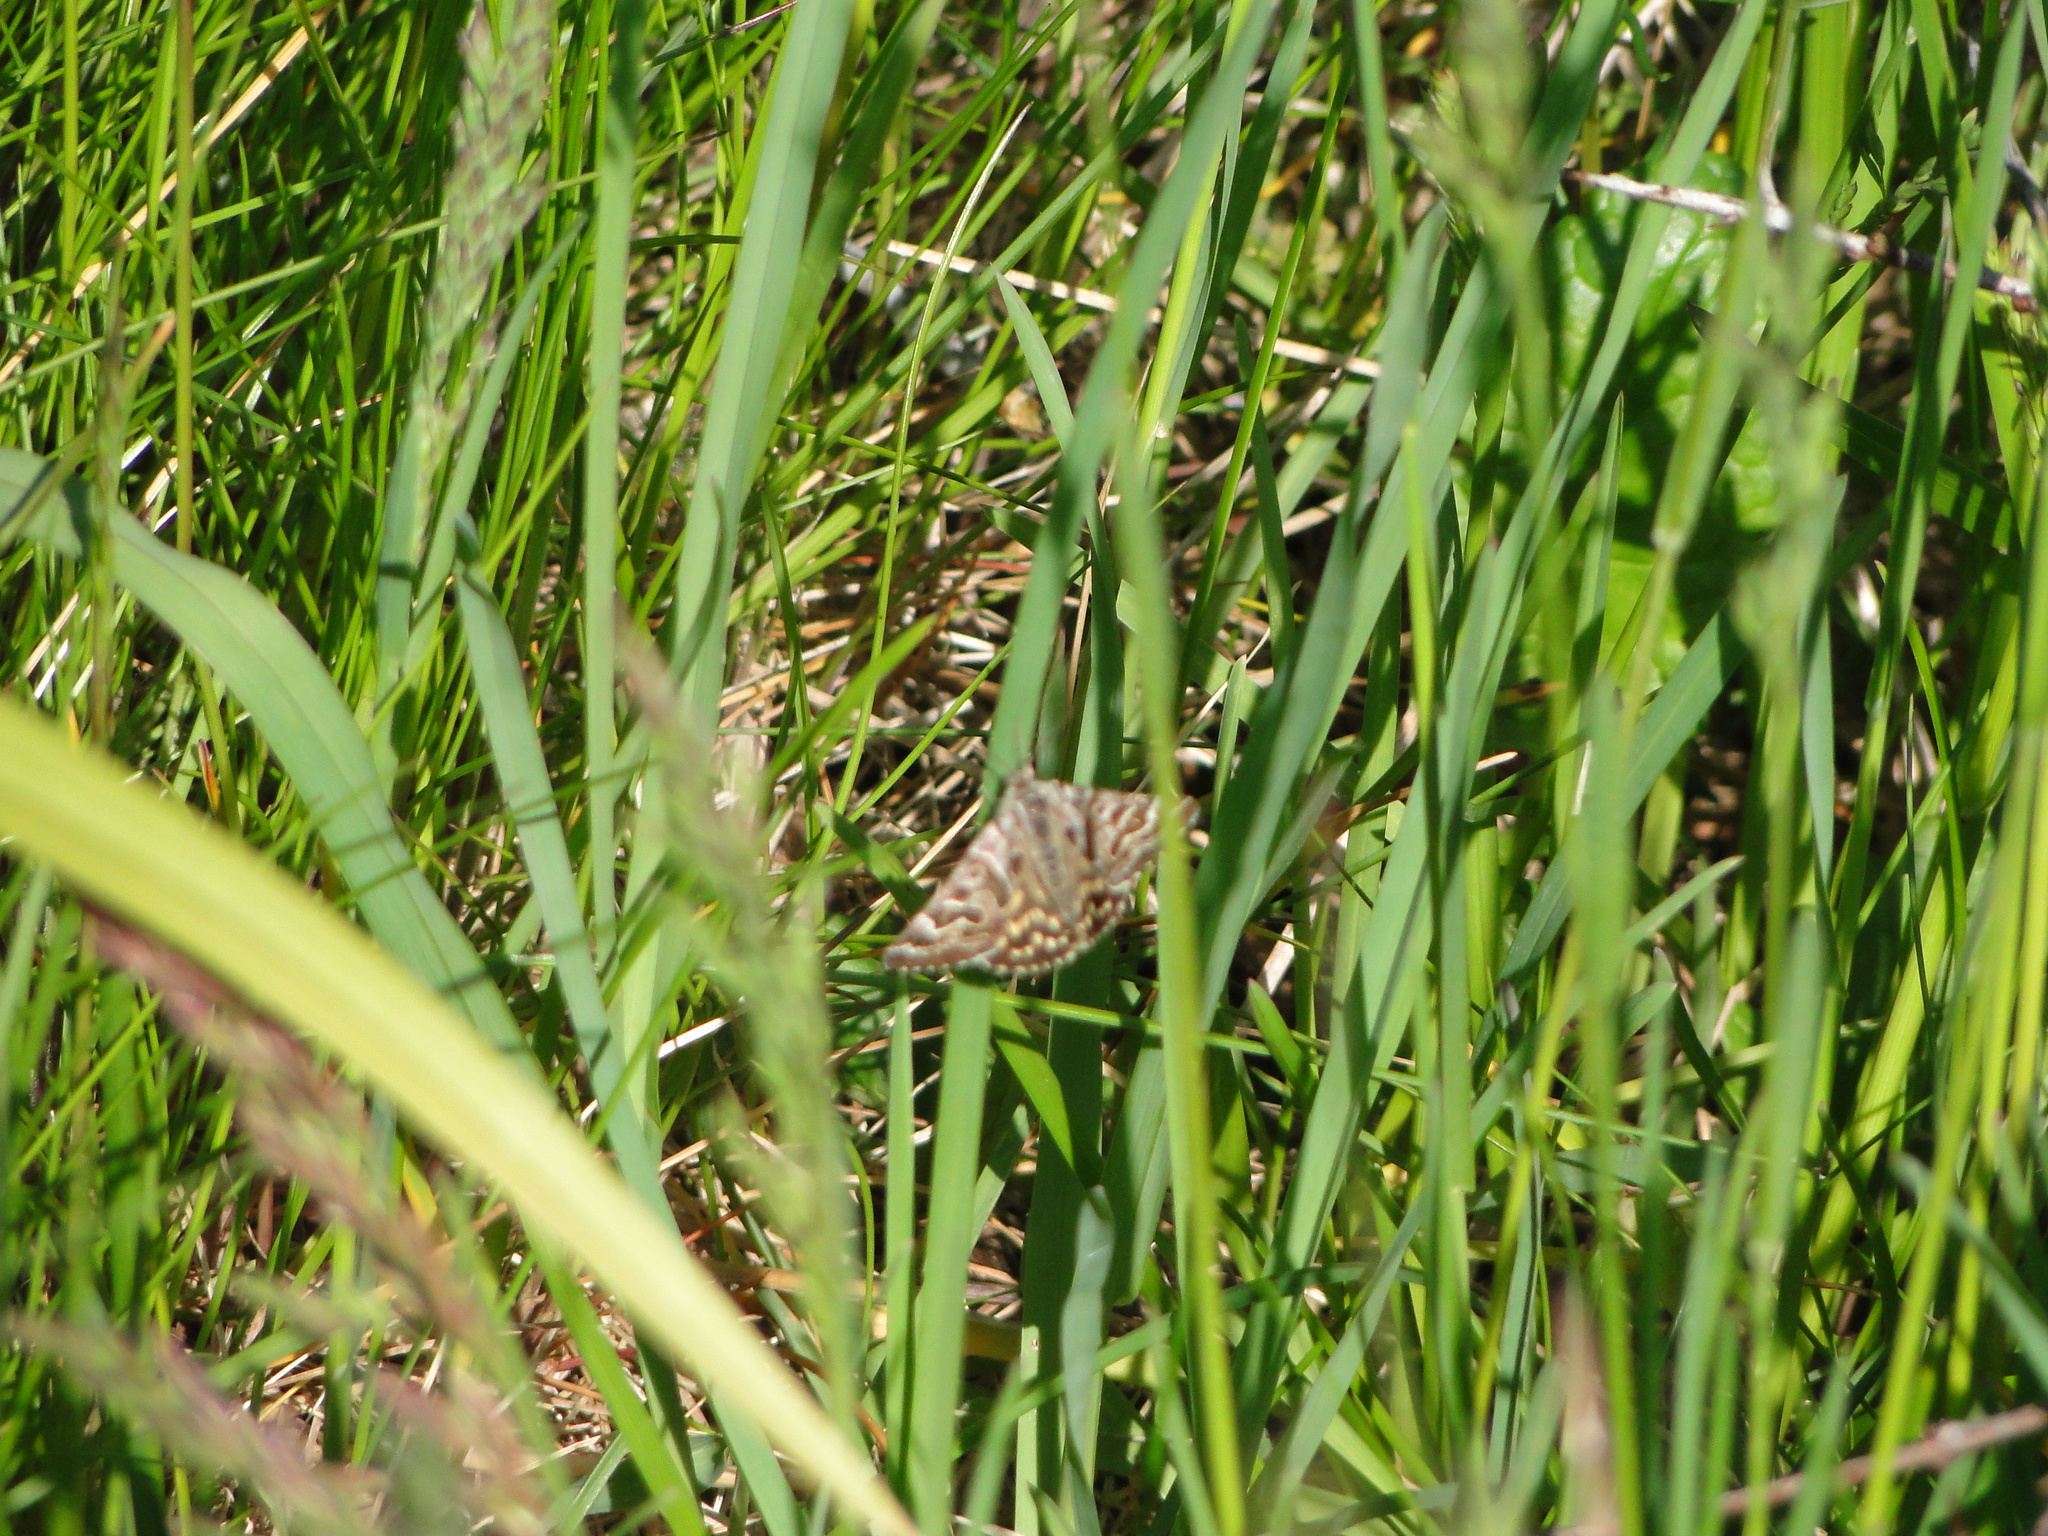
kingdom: Animalia
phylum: Arthropoda
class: Insecta
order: Lepidoptera
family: Erebidae
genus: Callistege
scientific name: Callistege mi
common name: Mother shipton
